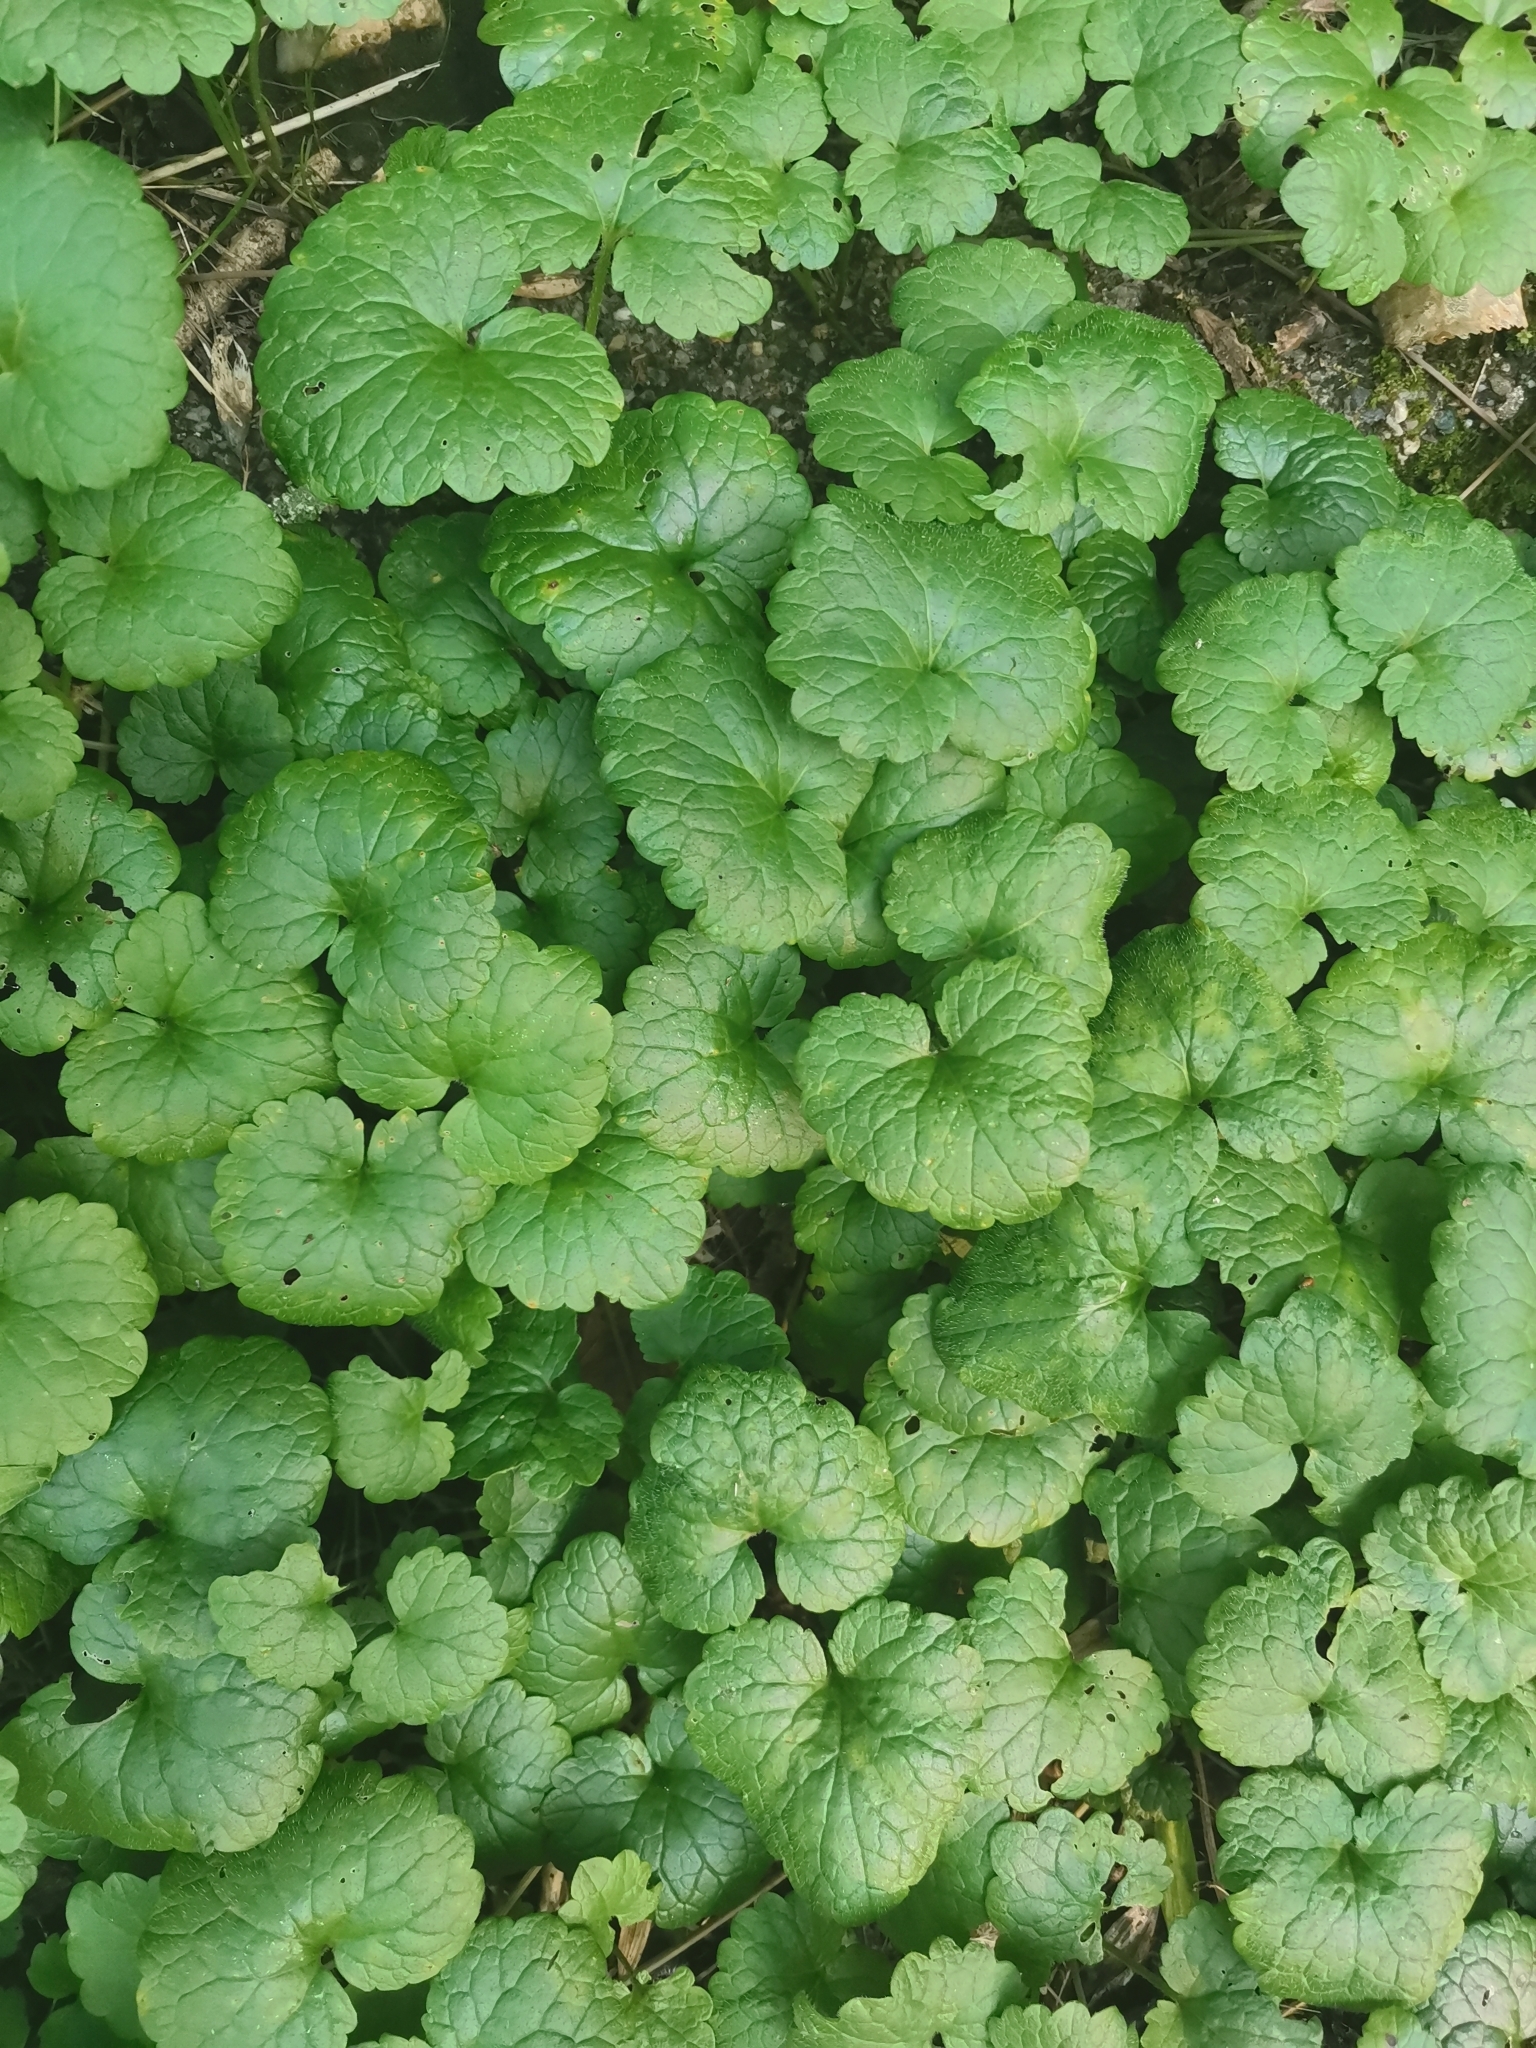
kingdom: Plantae
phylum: Tracheophyta
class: Magnoliopsida
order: Lamiales
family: Lamiaceae
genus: Glechoma
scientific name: Glechoma hederacea
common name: Ground ivy
